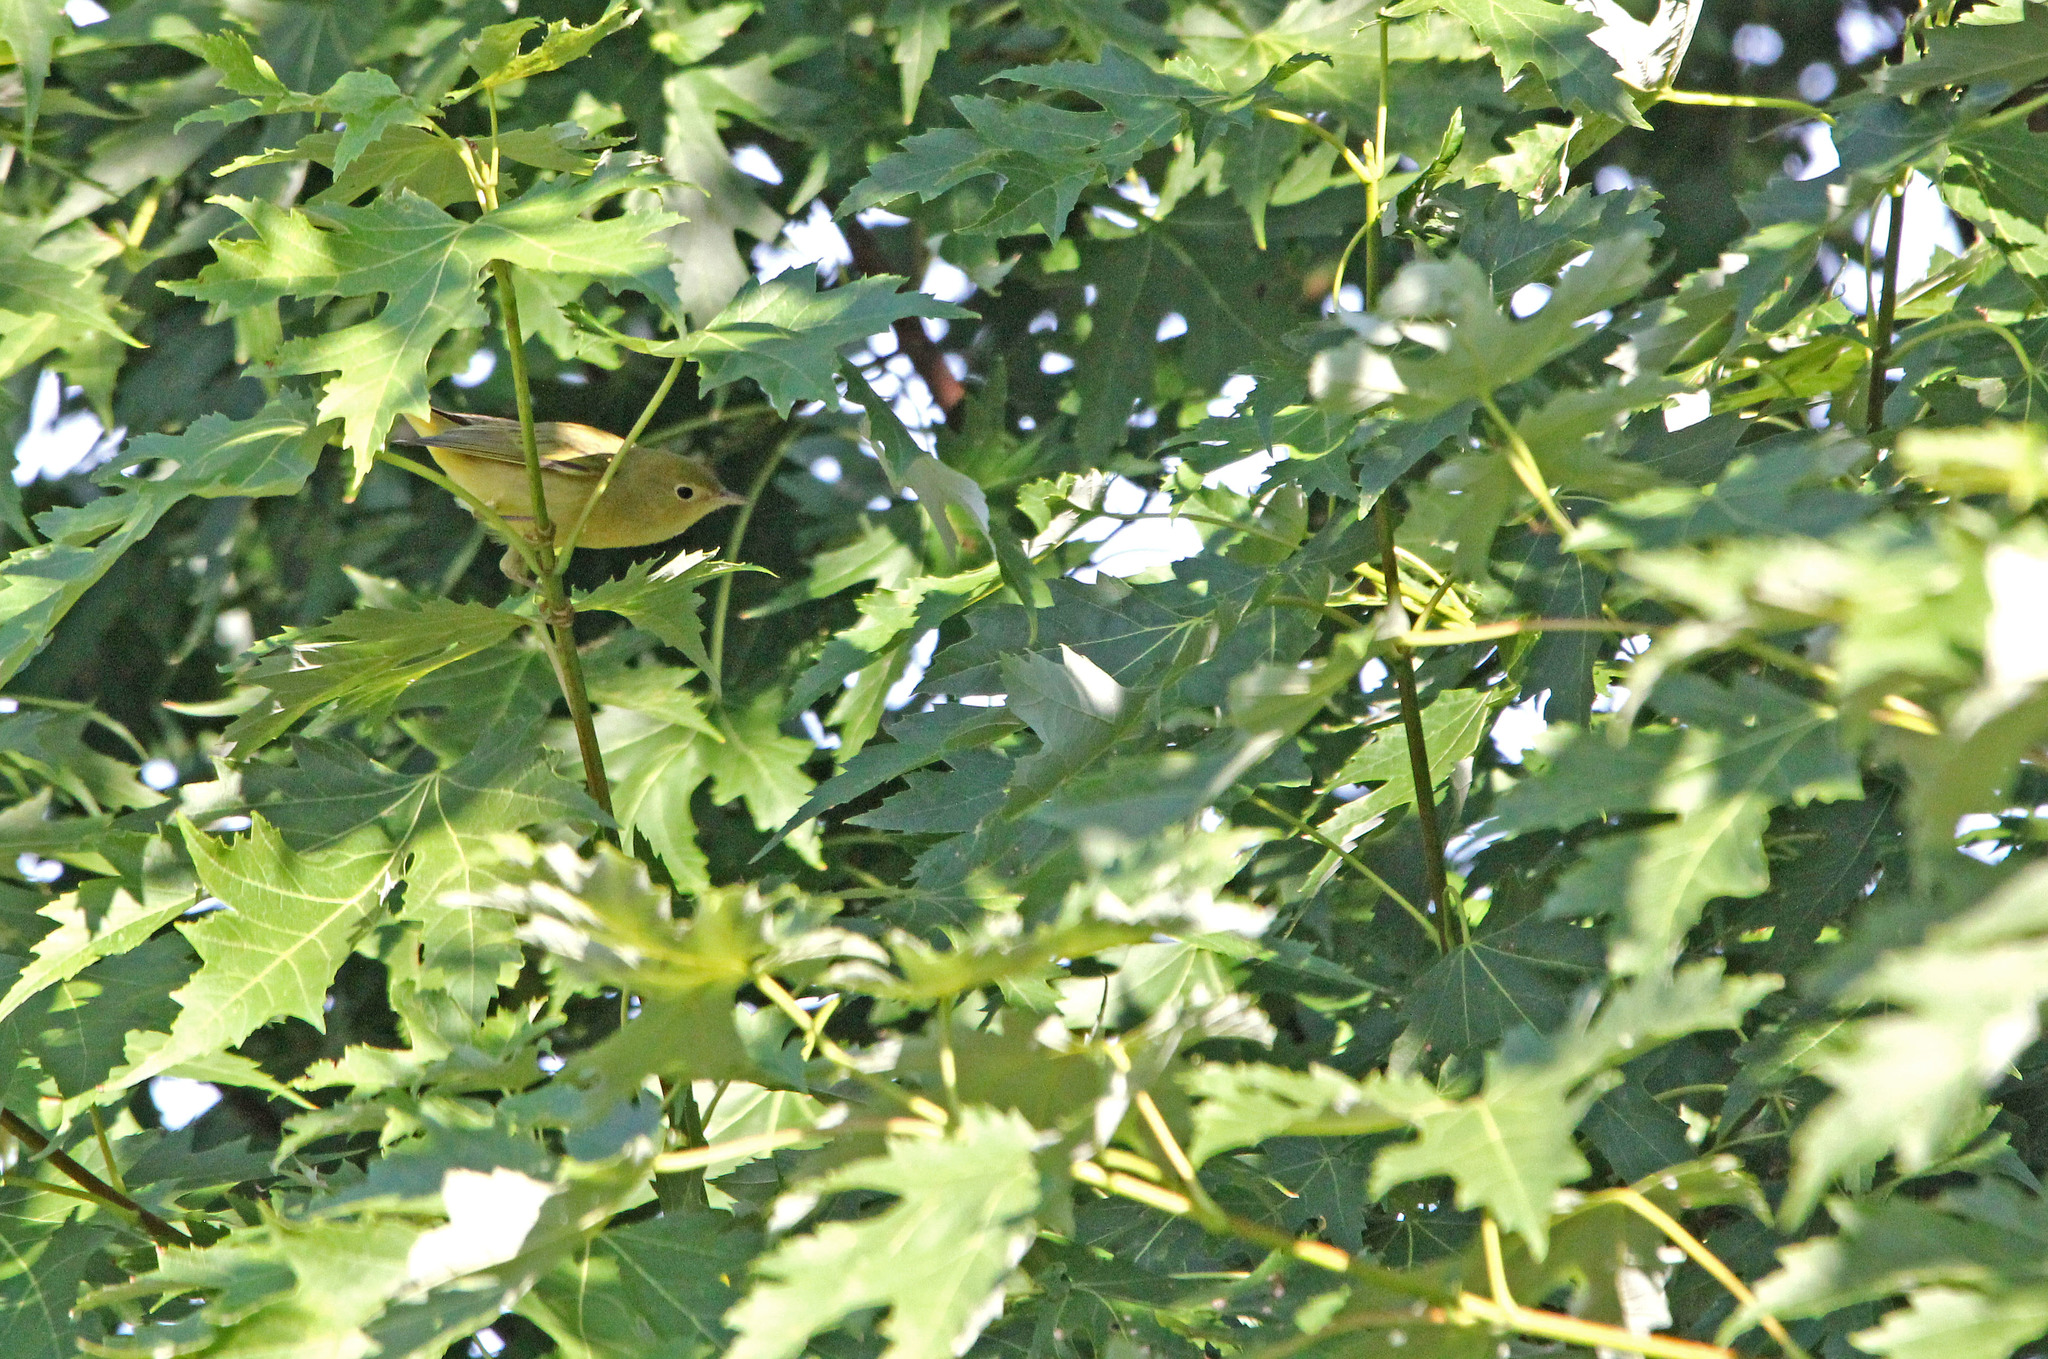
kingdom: Animalia
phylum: Chordata
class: Aves
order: Passeriformes
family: Parulidae
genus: Setophaga
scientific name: Setophaga petechia
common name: Yellow warbler
